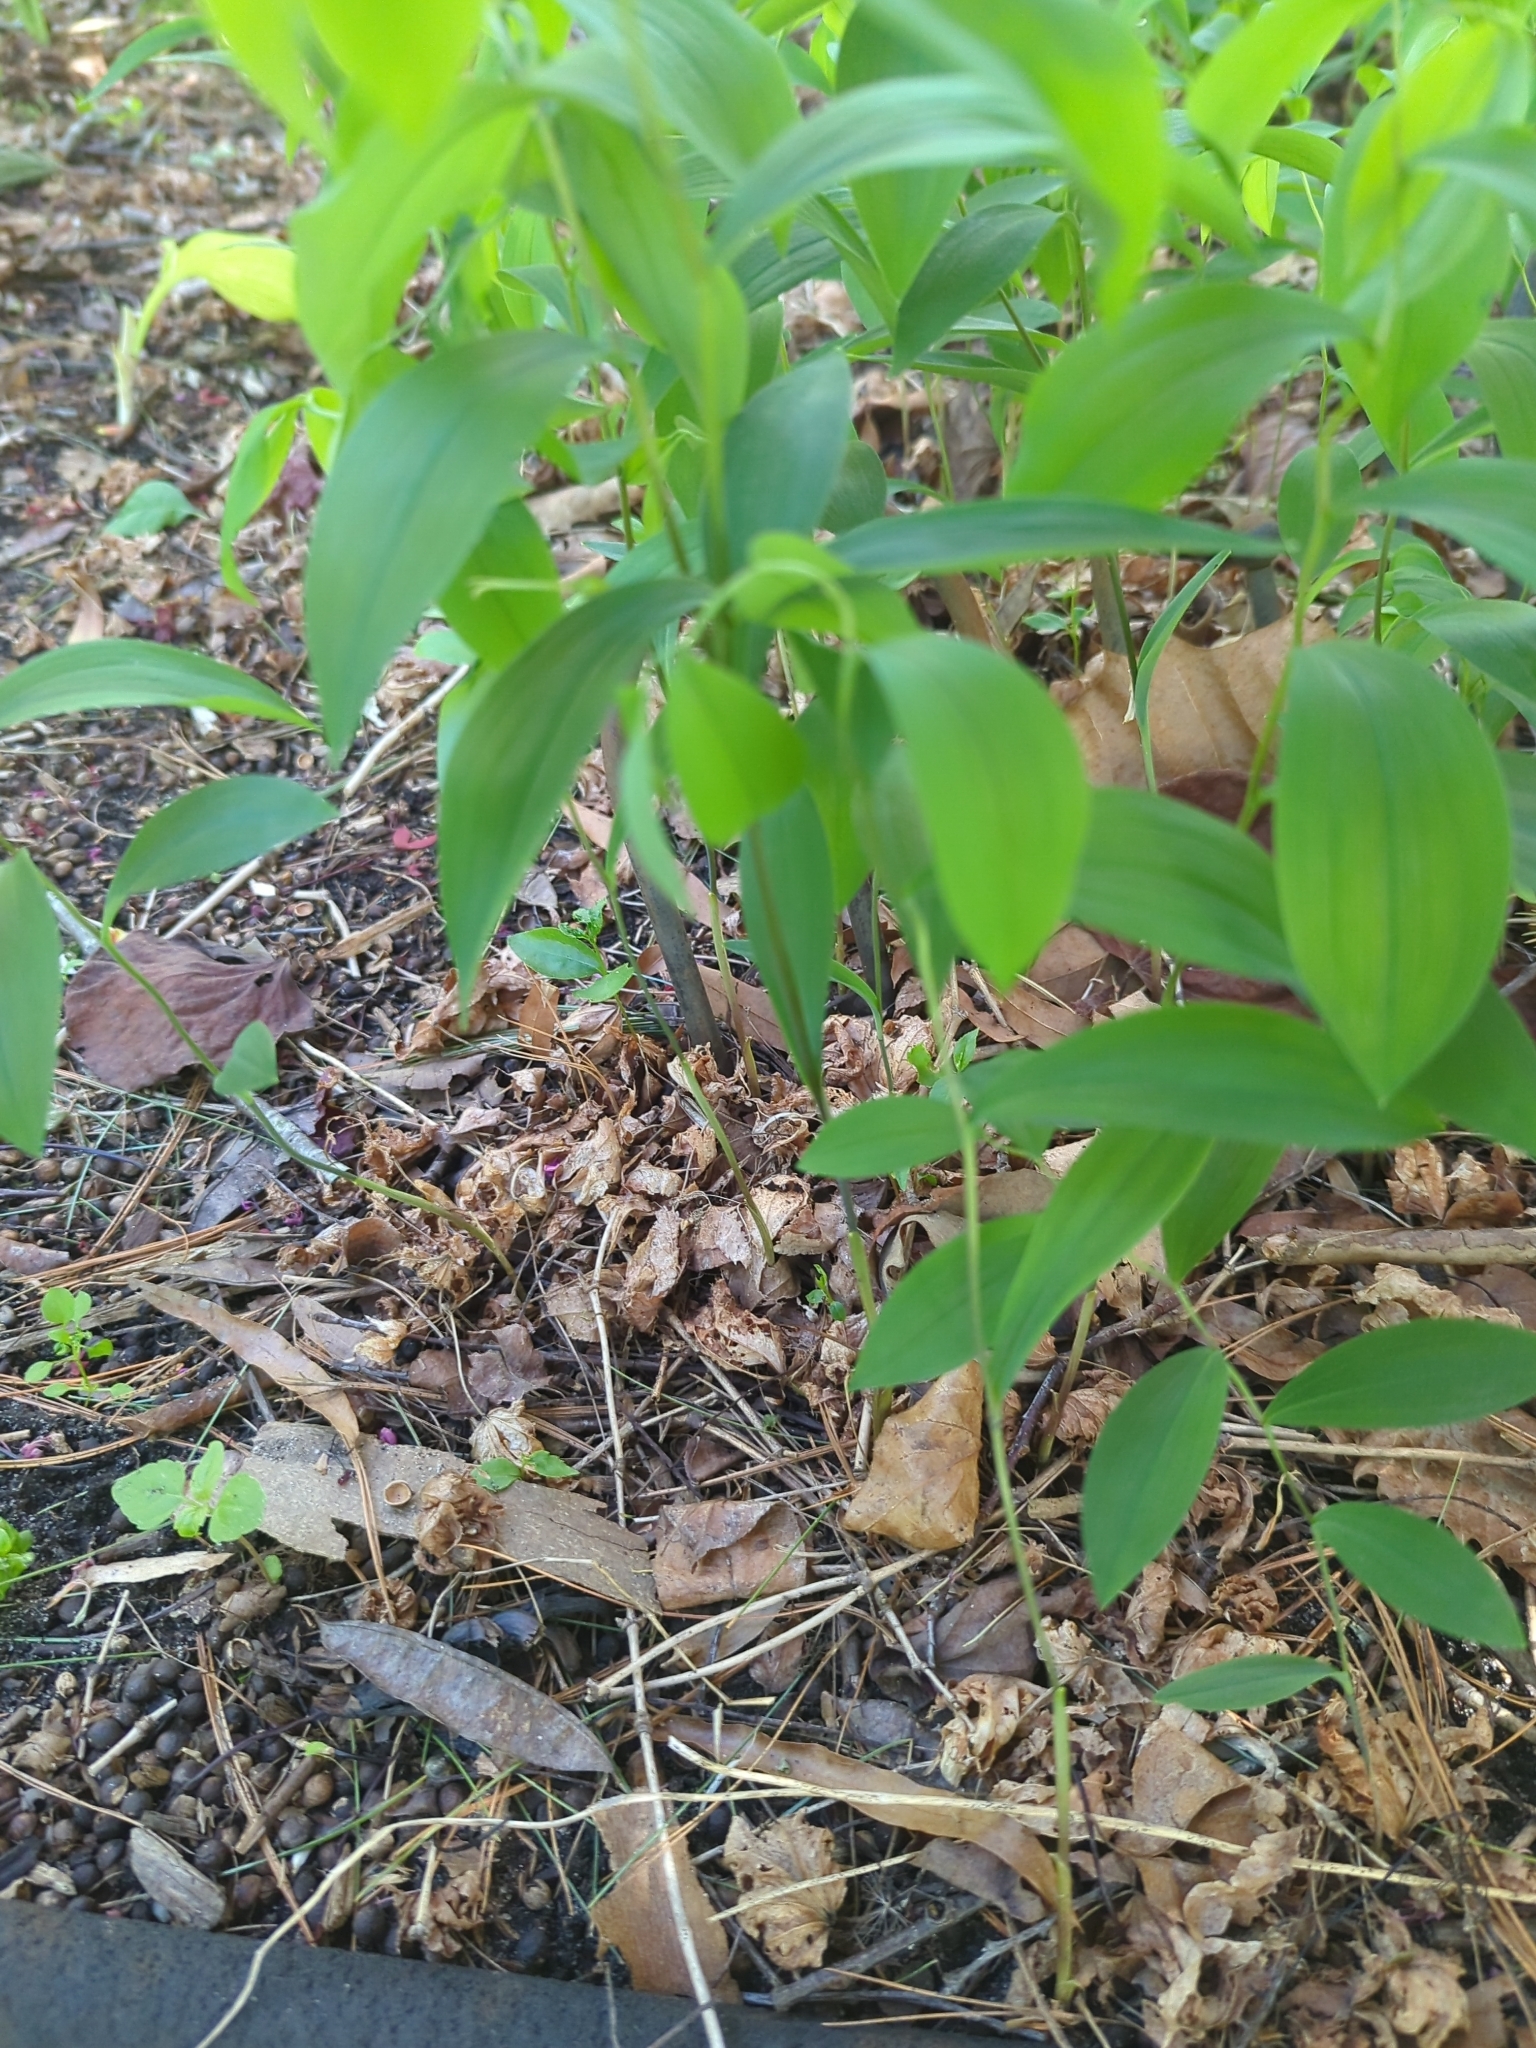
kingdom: Plantae
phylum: Tracheophyta
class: Liliopsida
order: Liliales
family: Colchicaceae
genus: Uvularia
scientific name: Uvularia sessilifolia
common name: Straw-lily
